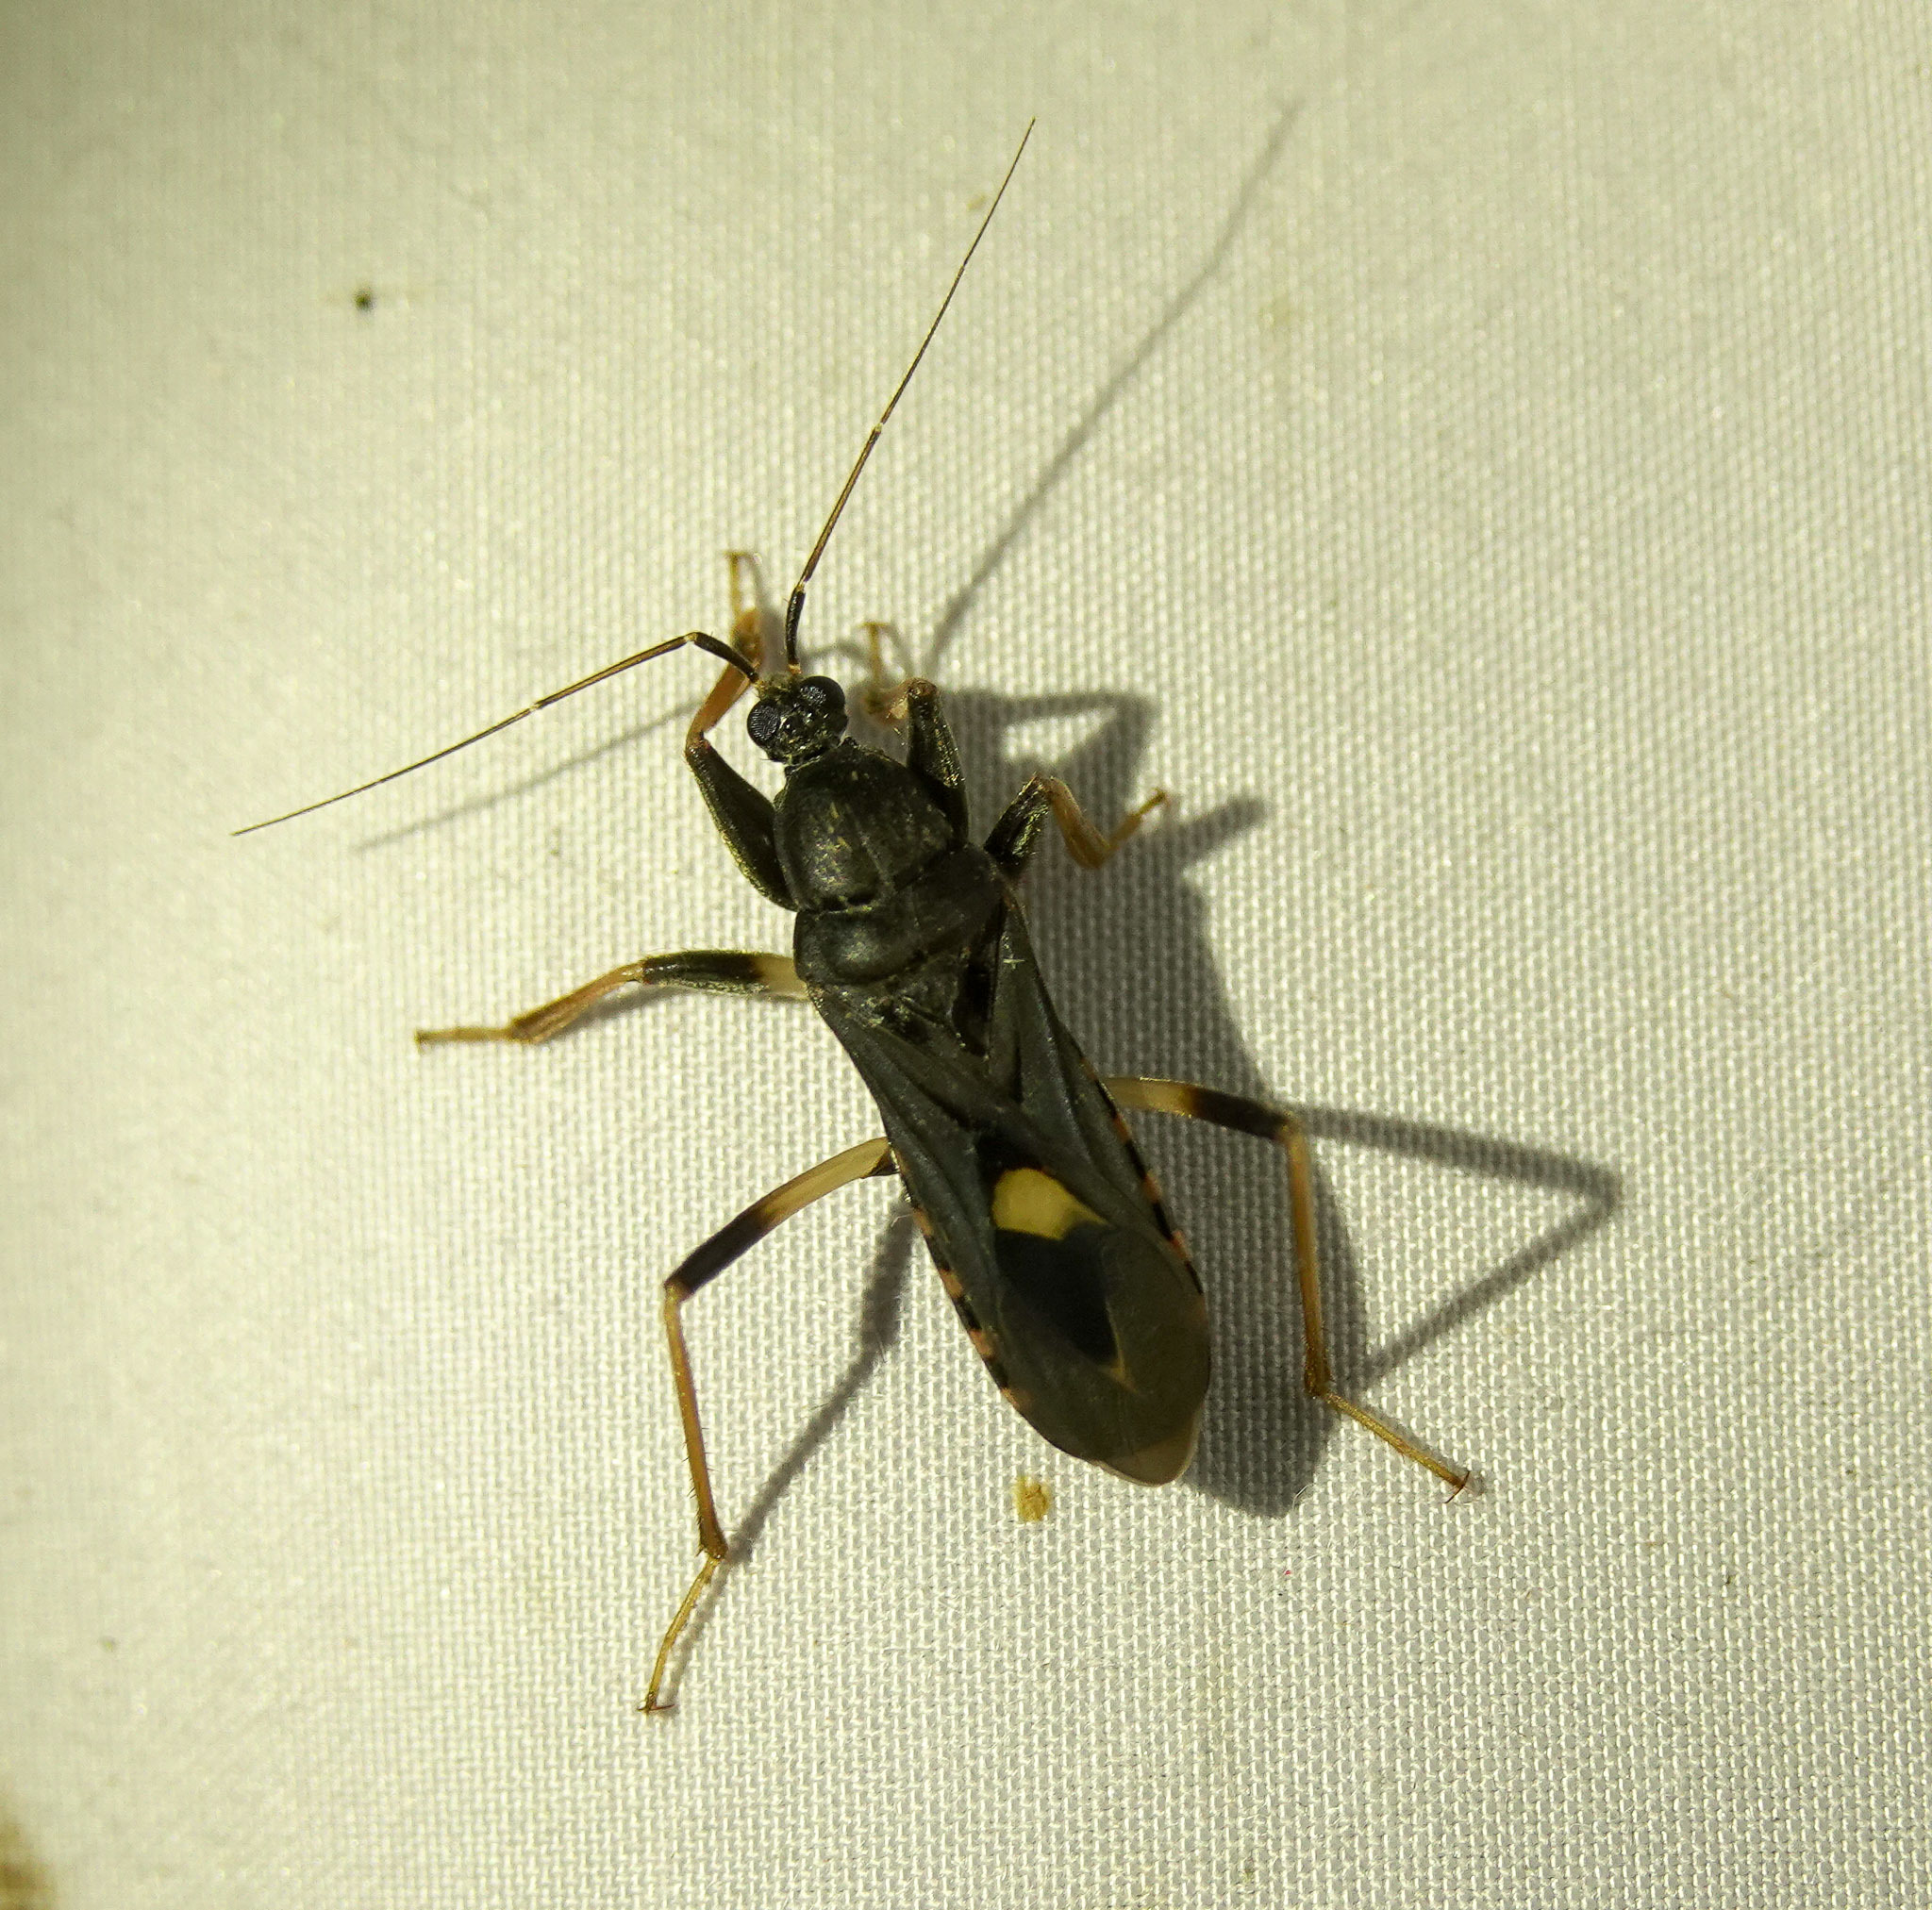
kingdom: Animalia
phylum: Arthropoda
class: Insecta
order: Hemiptera
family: Reduviidae
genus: Ectomocoris
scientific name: Ectomocoris atrox
